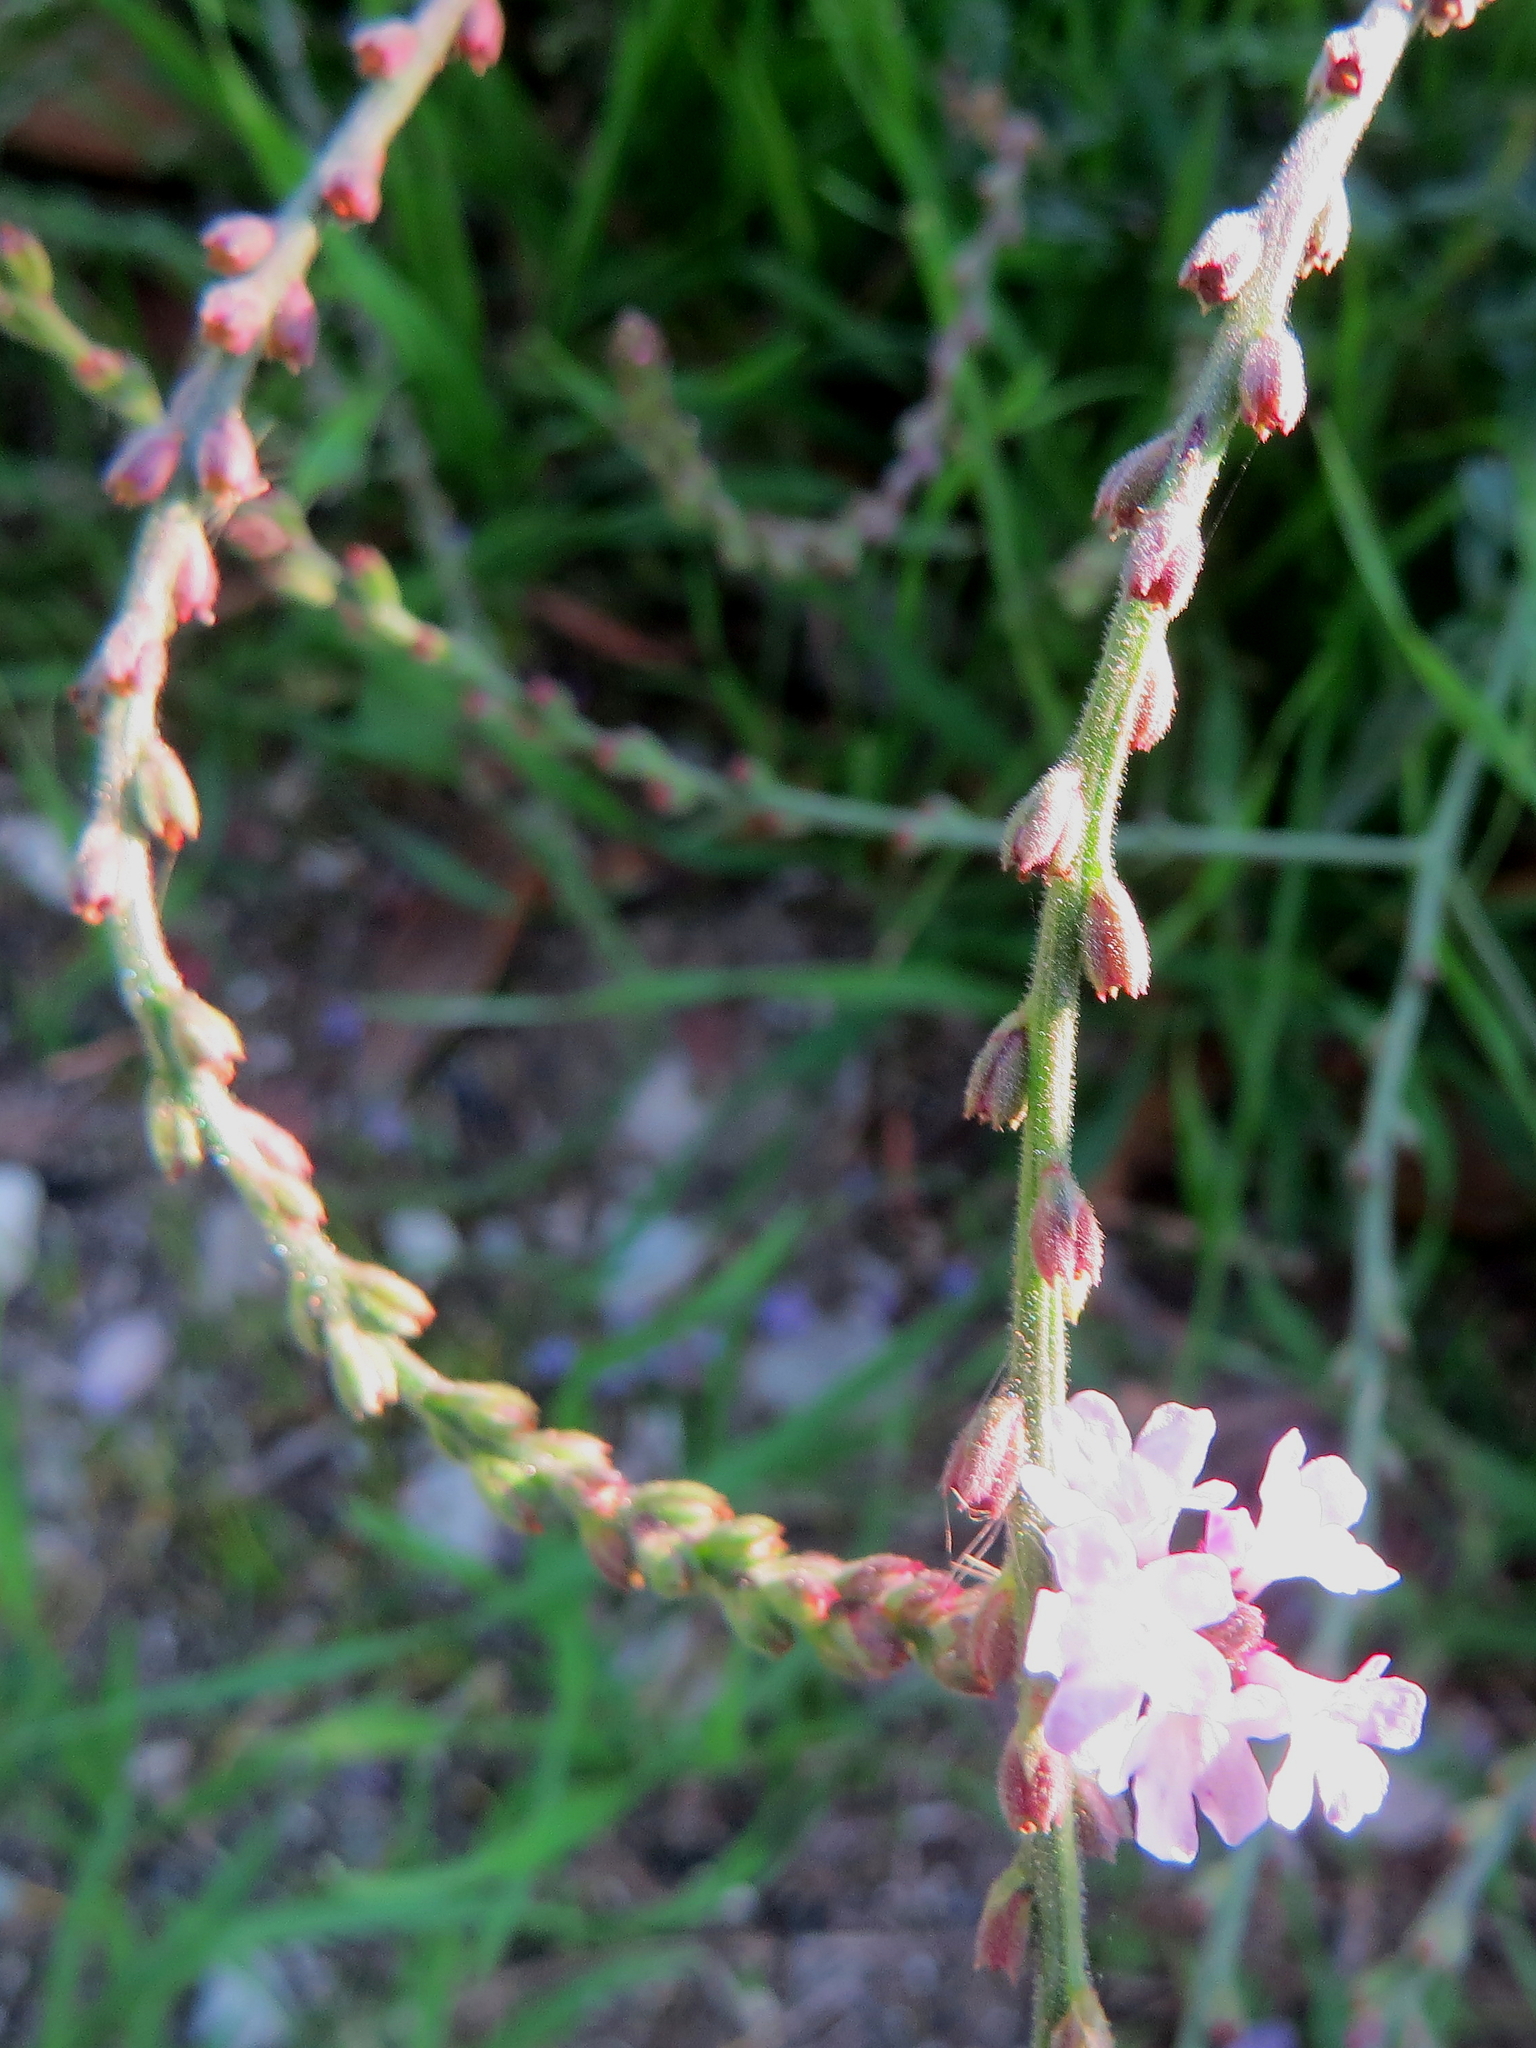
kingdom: Plantae
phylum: Tracheophyta
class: Magnoliopsida
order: Lamiales
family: Verbenaceae
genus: Verbena
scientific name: Verbena officinalis
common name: Vervain
